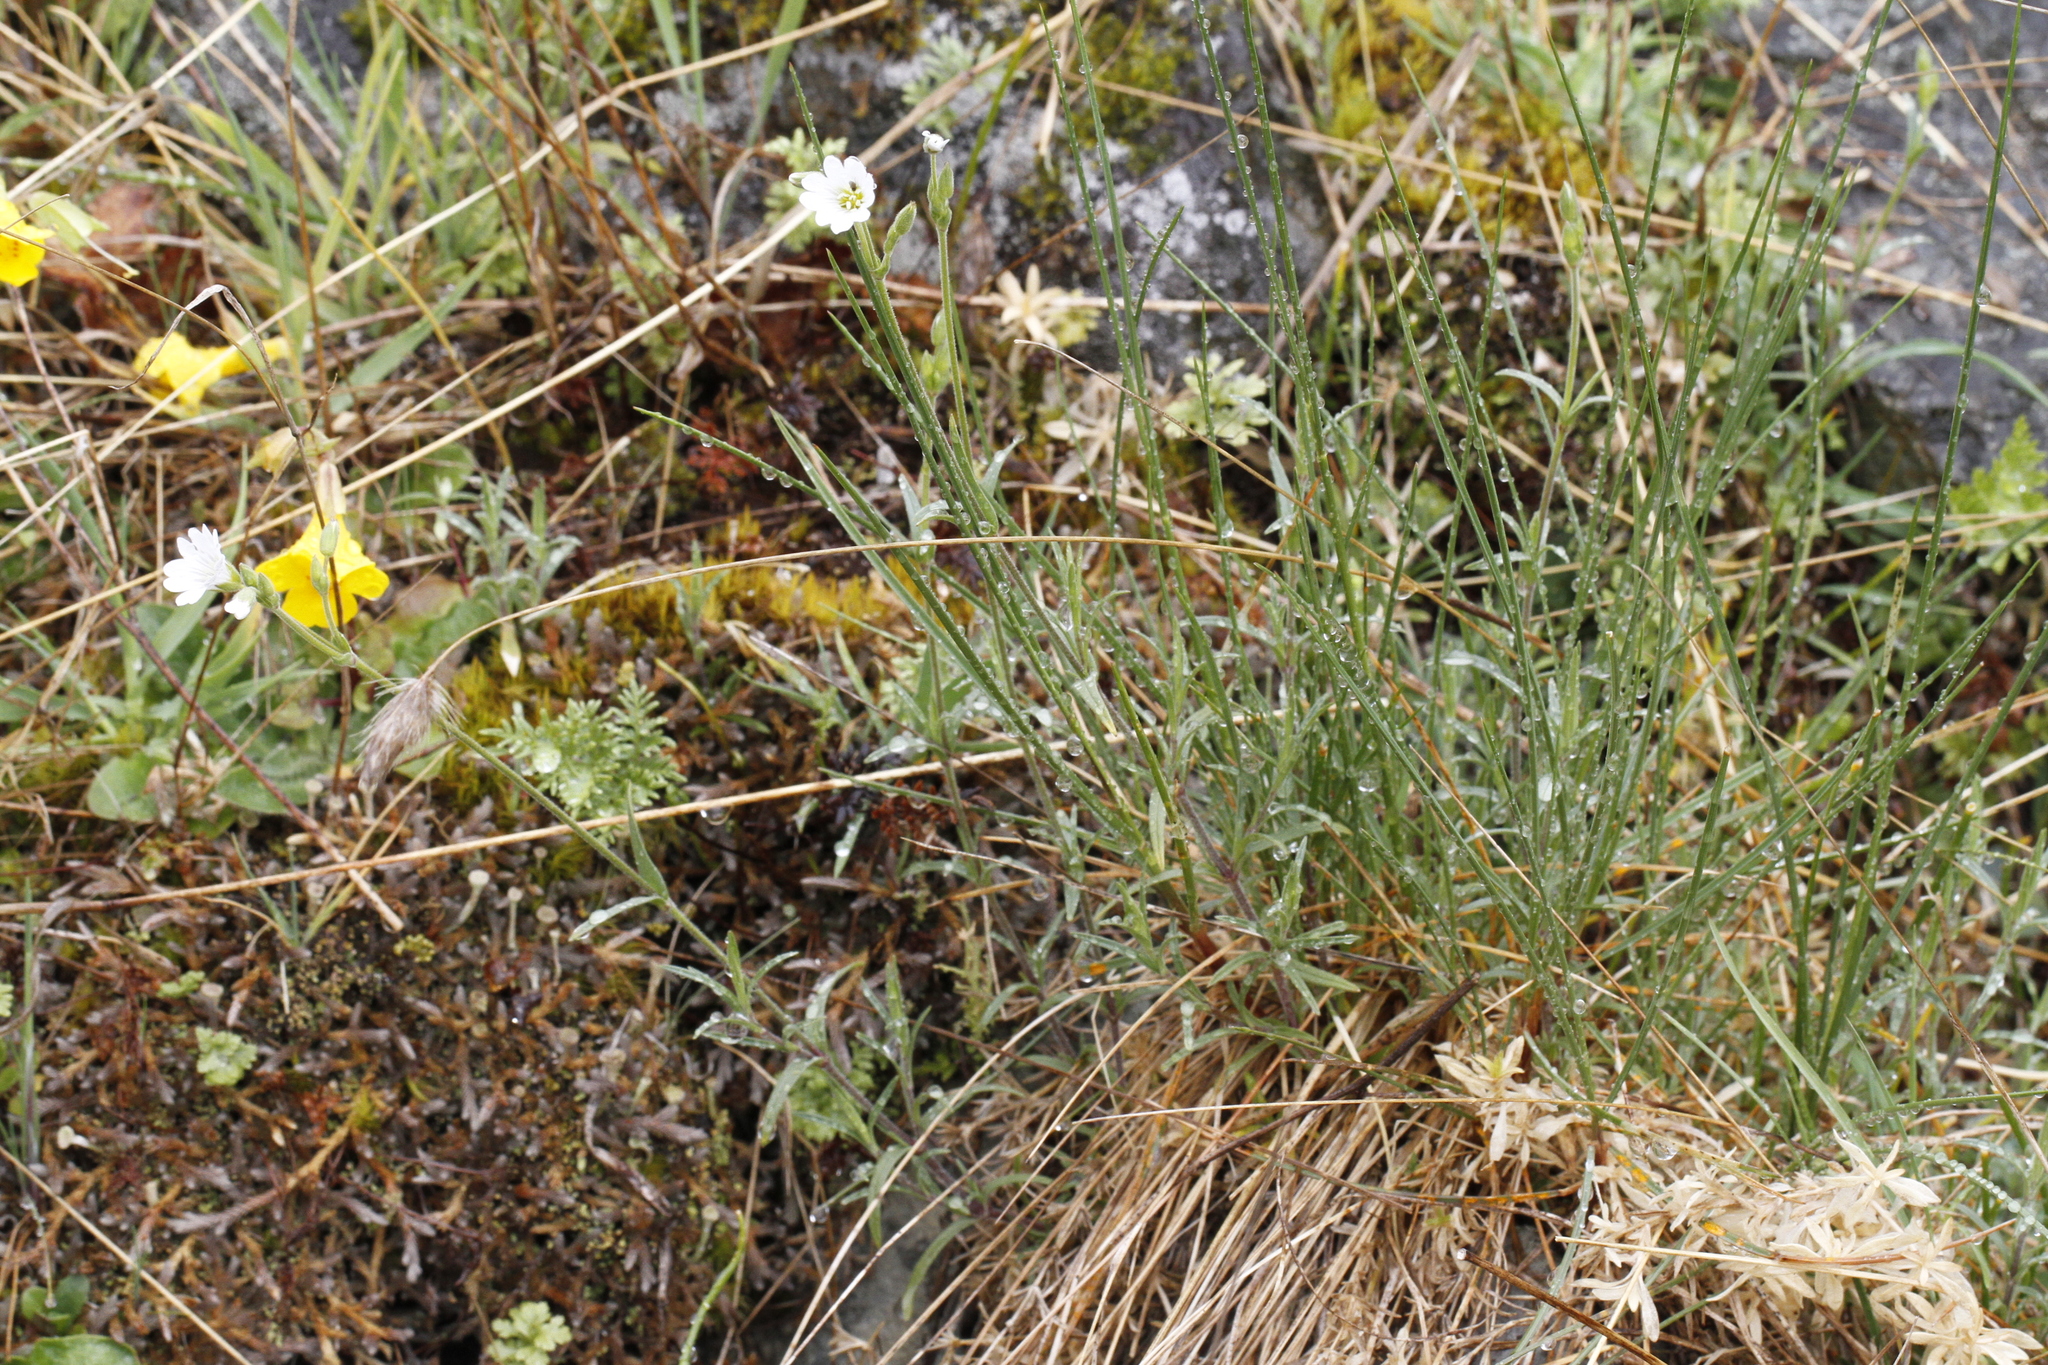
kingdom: Plantae
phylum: Tracheophyta
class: Magnoliopsida
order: Caryophyllales
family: Caryophyllaceae
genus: Cerastium
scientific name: Cerastium arvense
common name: Field mouse-ear
